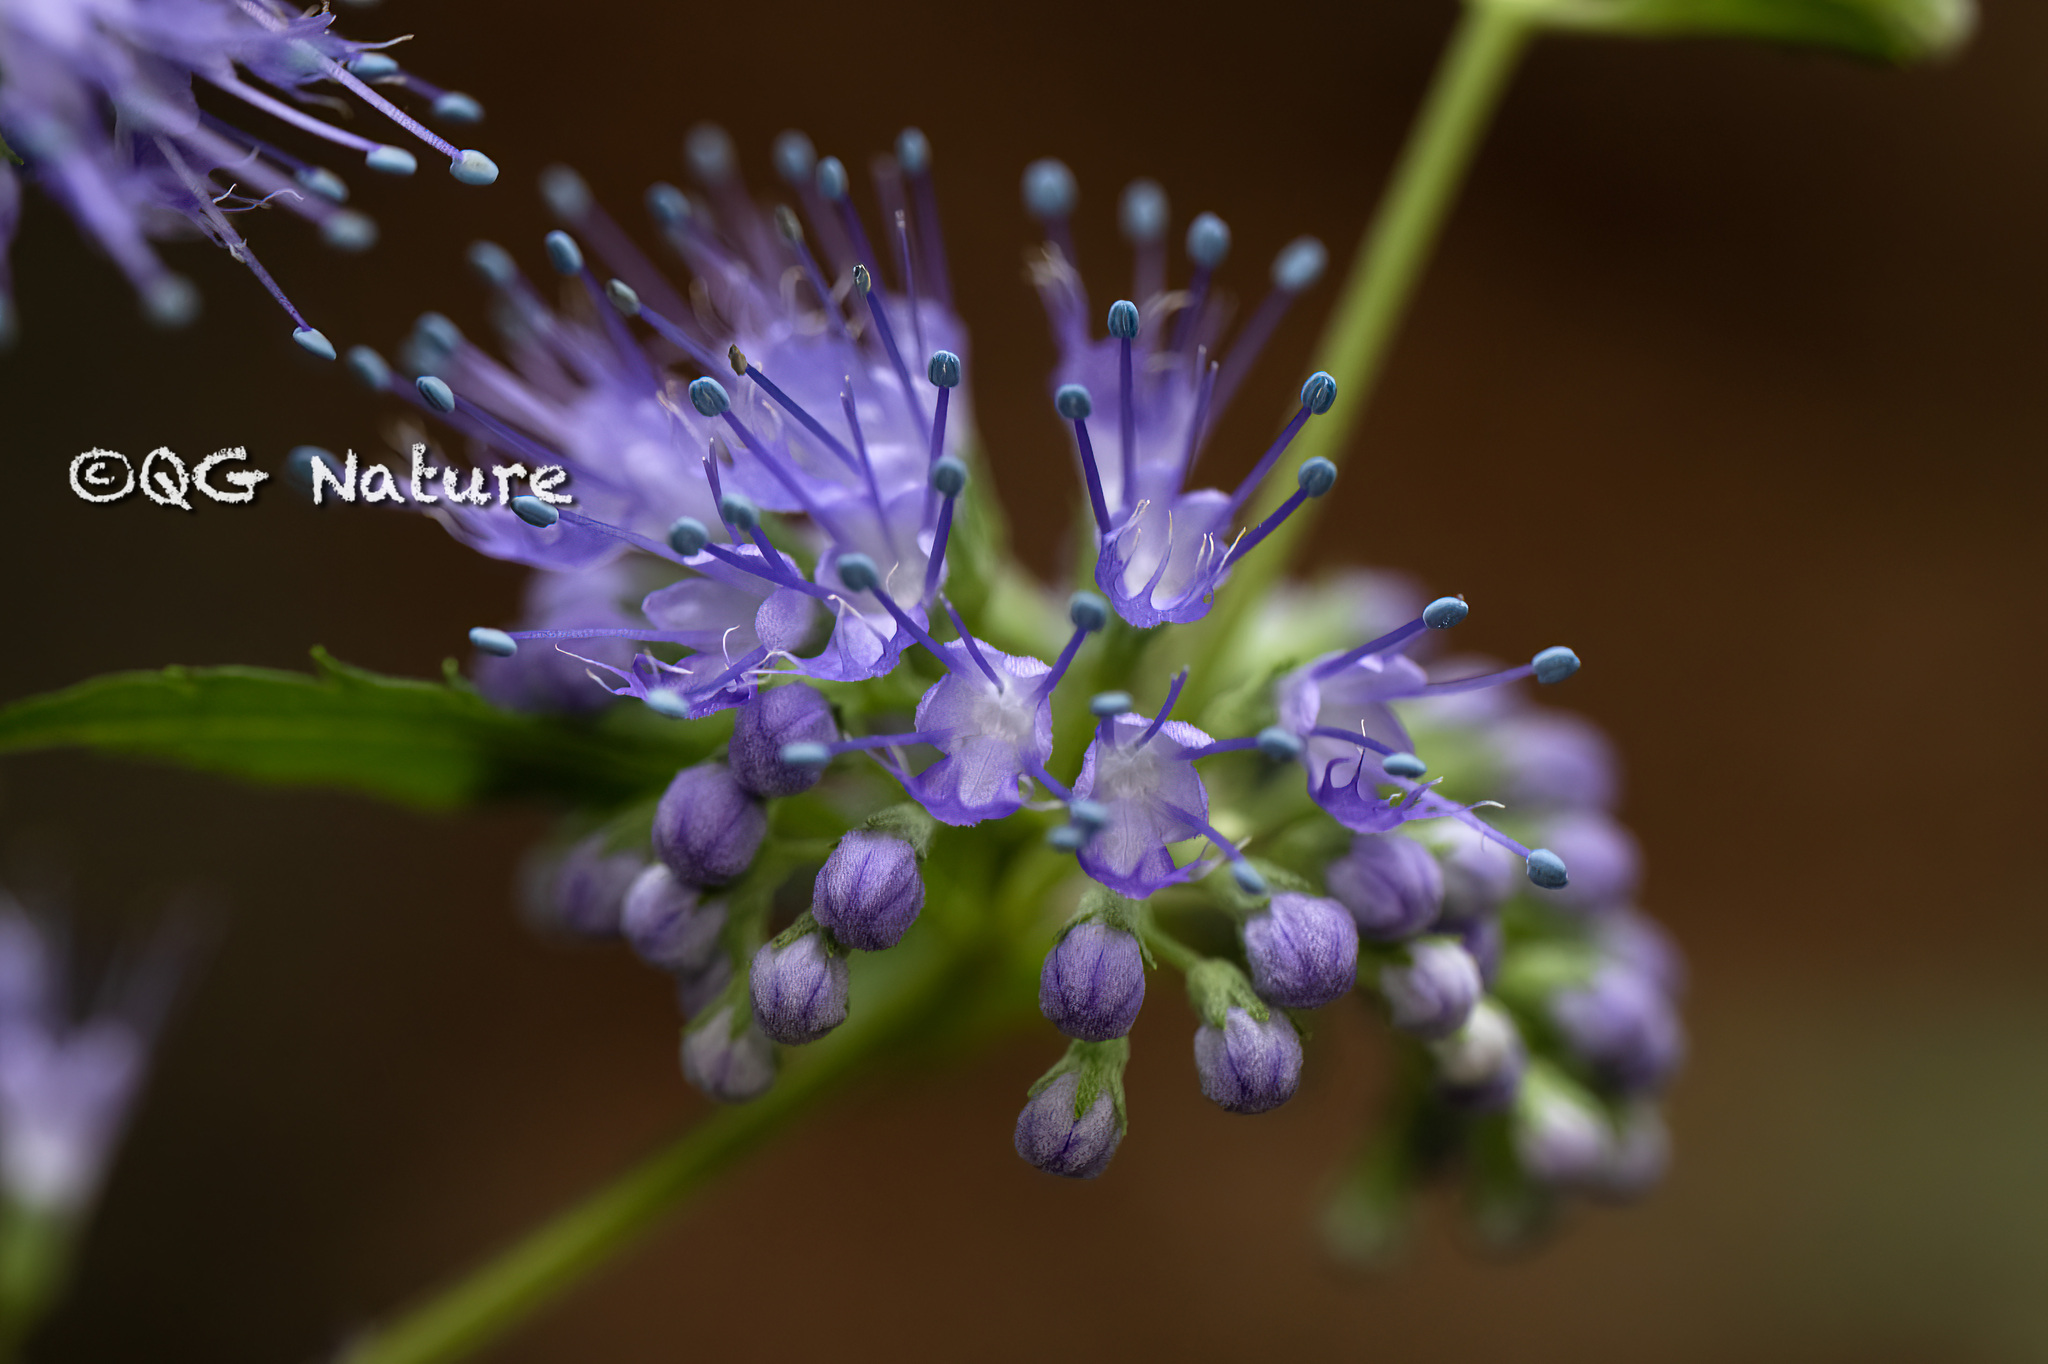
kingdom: Plantae
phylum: Tracheophyta
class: Magnoliopsida
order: Lamiales
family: Lamiaceae
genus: Caryopteris
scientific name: Caryopteris incana
